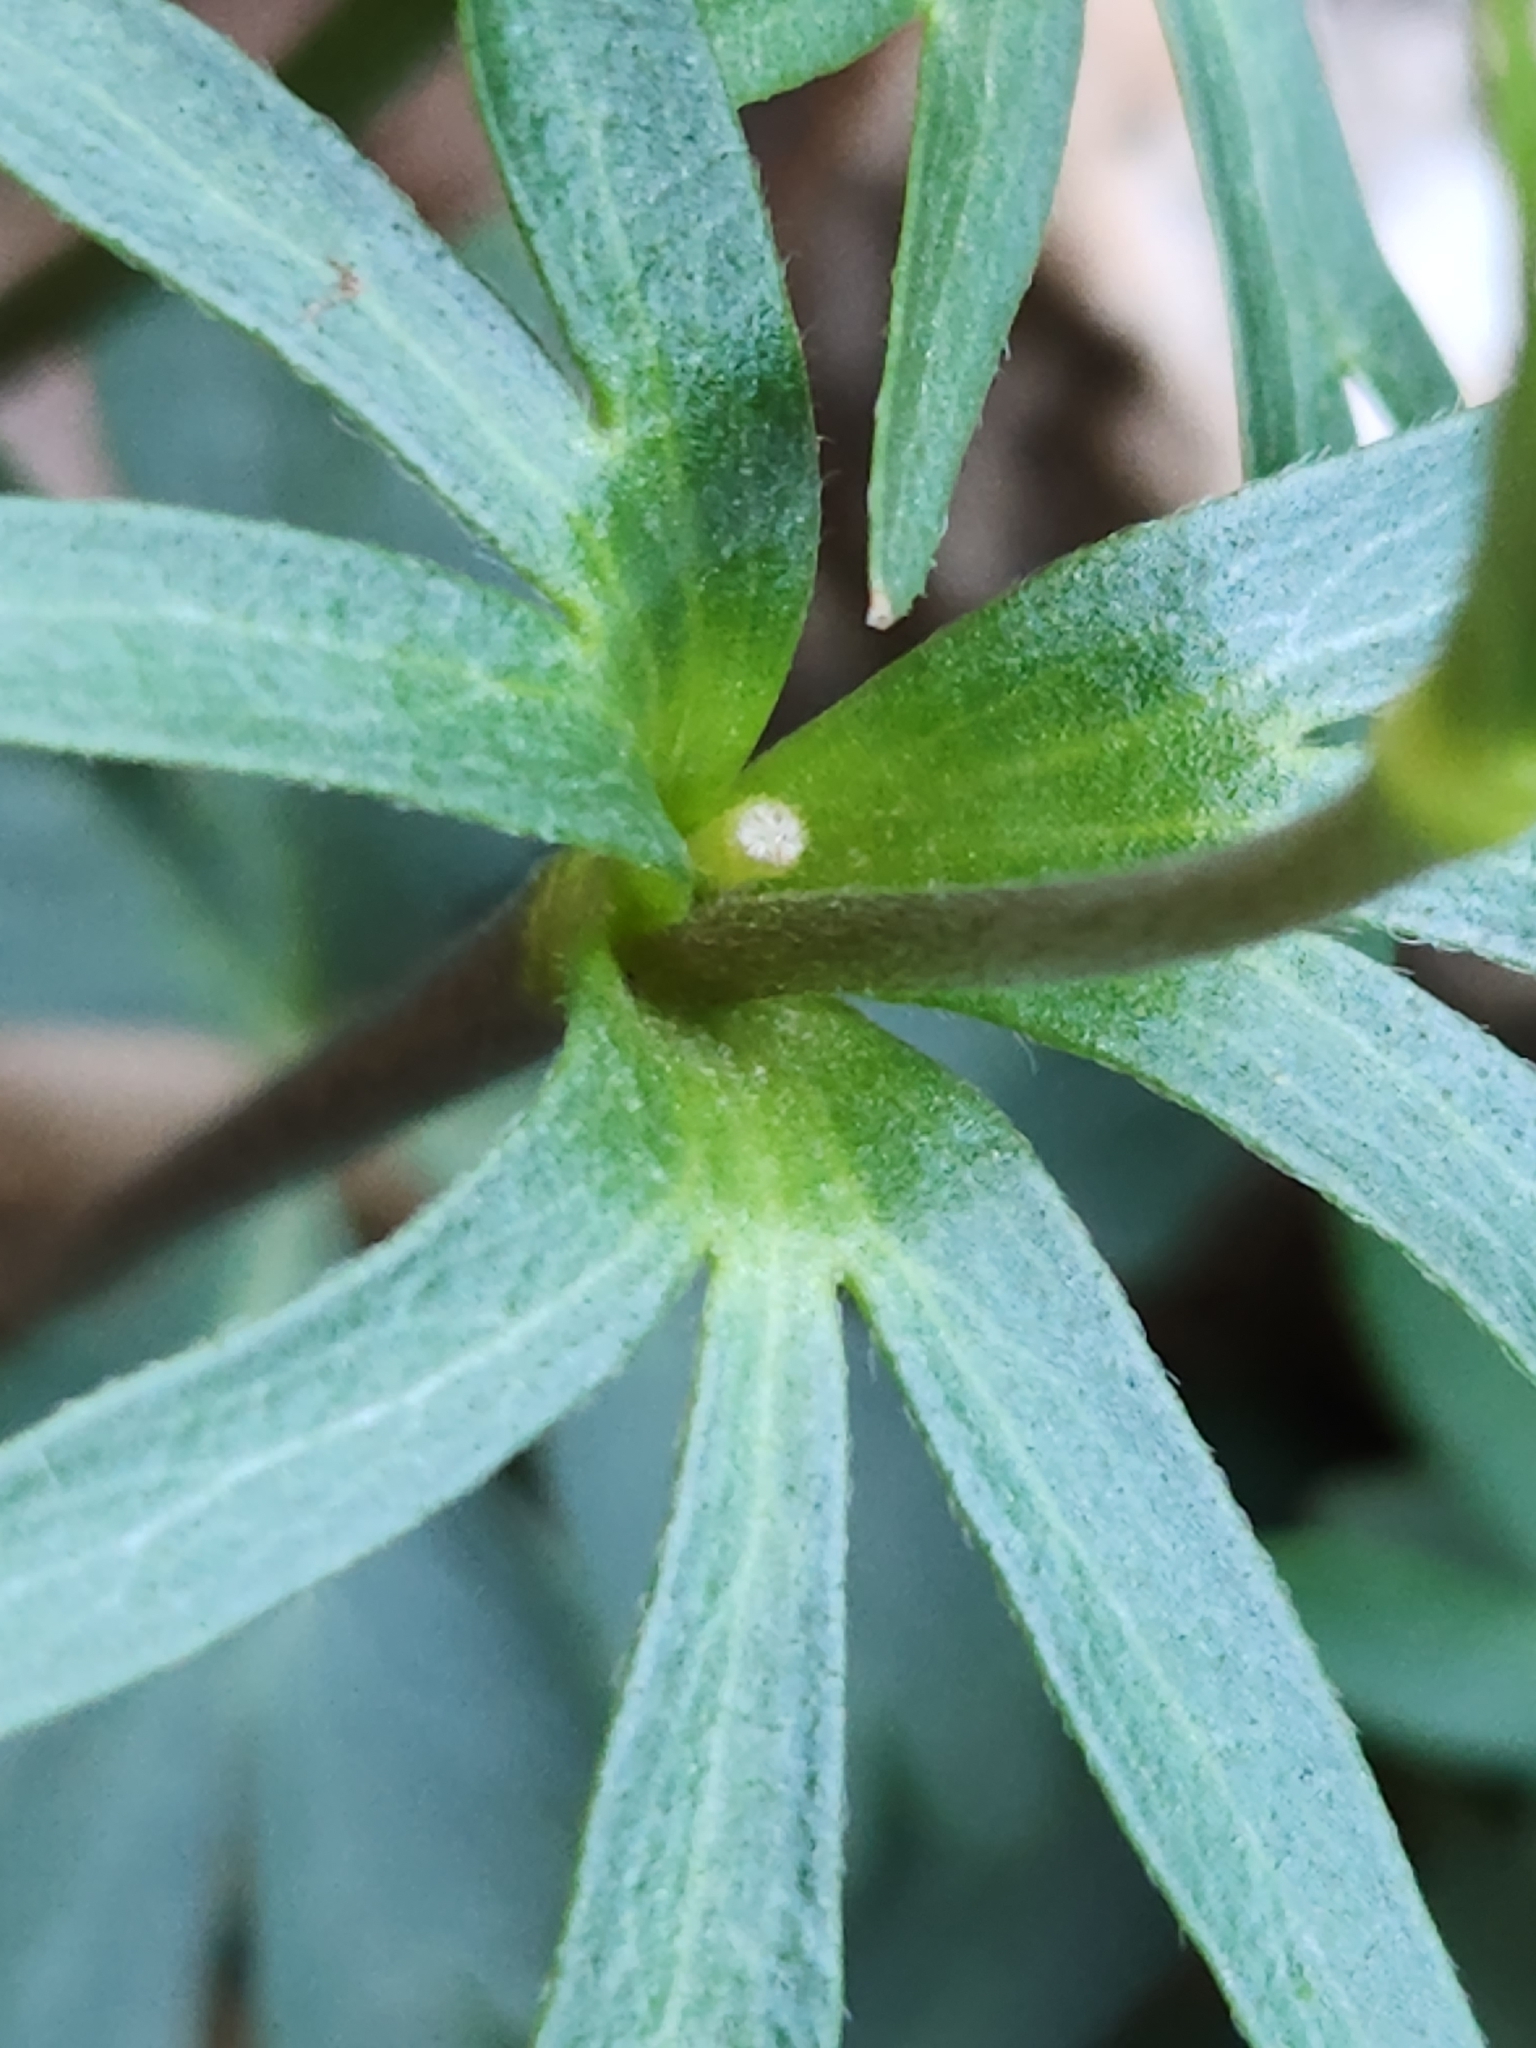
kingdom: Plantae
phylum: Tracheophyta
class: Magnoliopsida
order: Ranunculales
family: Ranunculaceae
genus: Anemone
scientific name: Anemone edwardsiana
